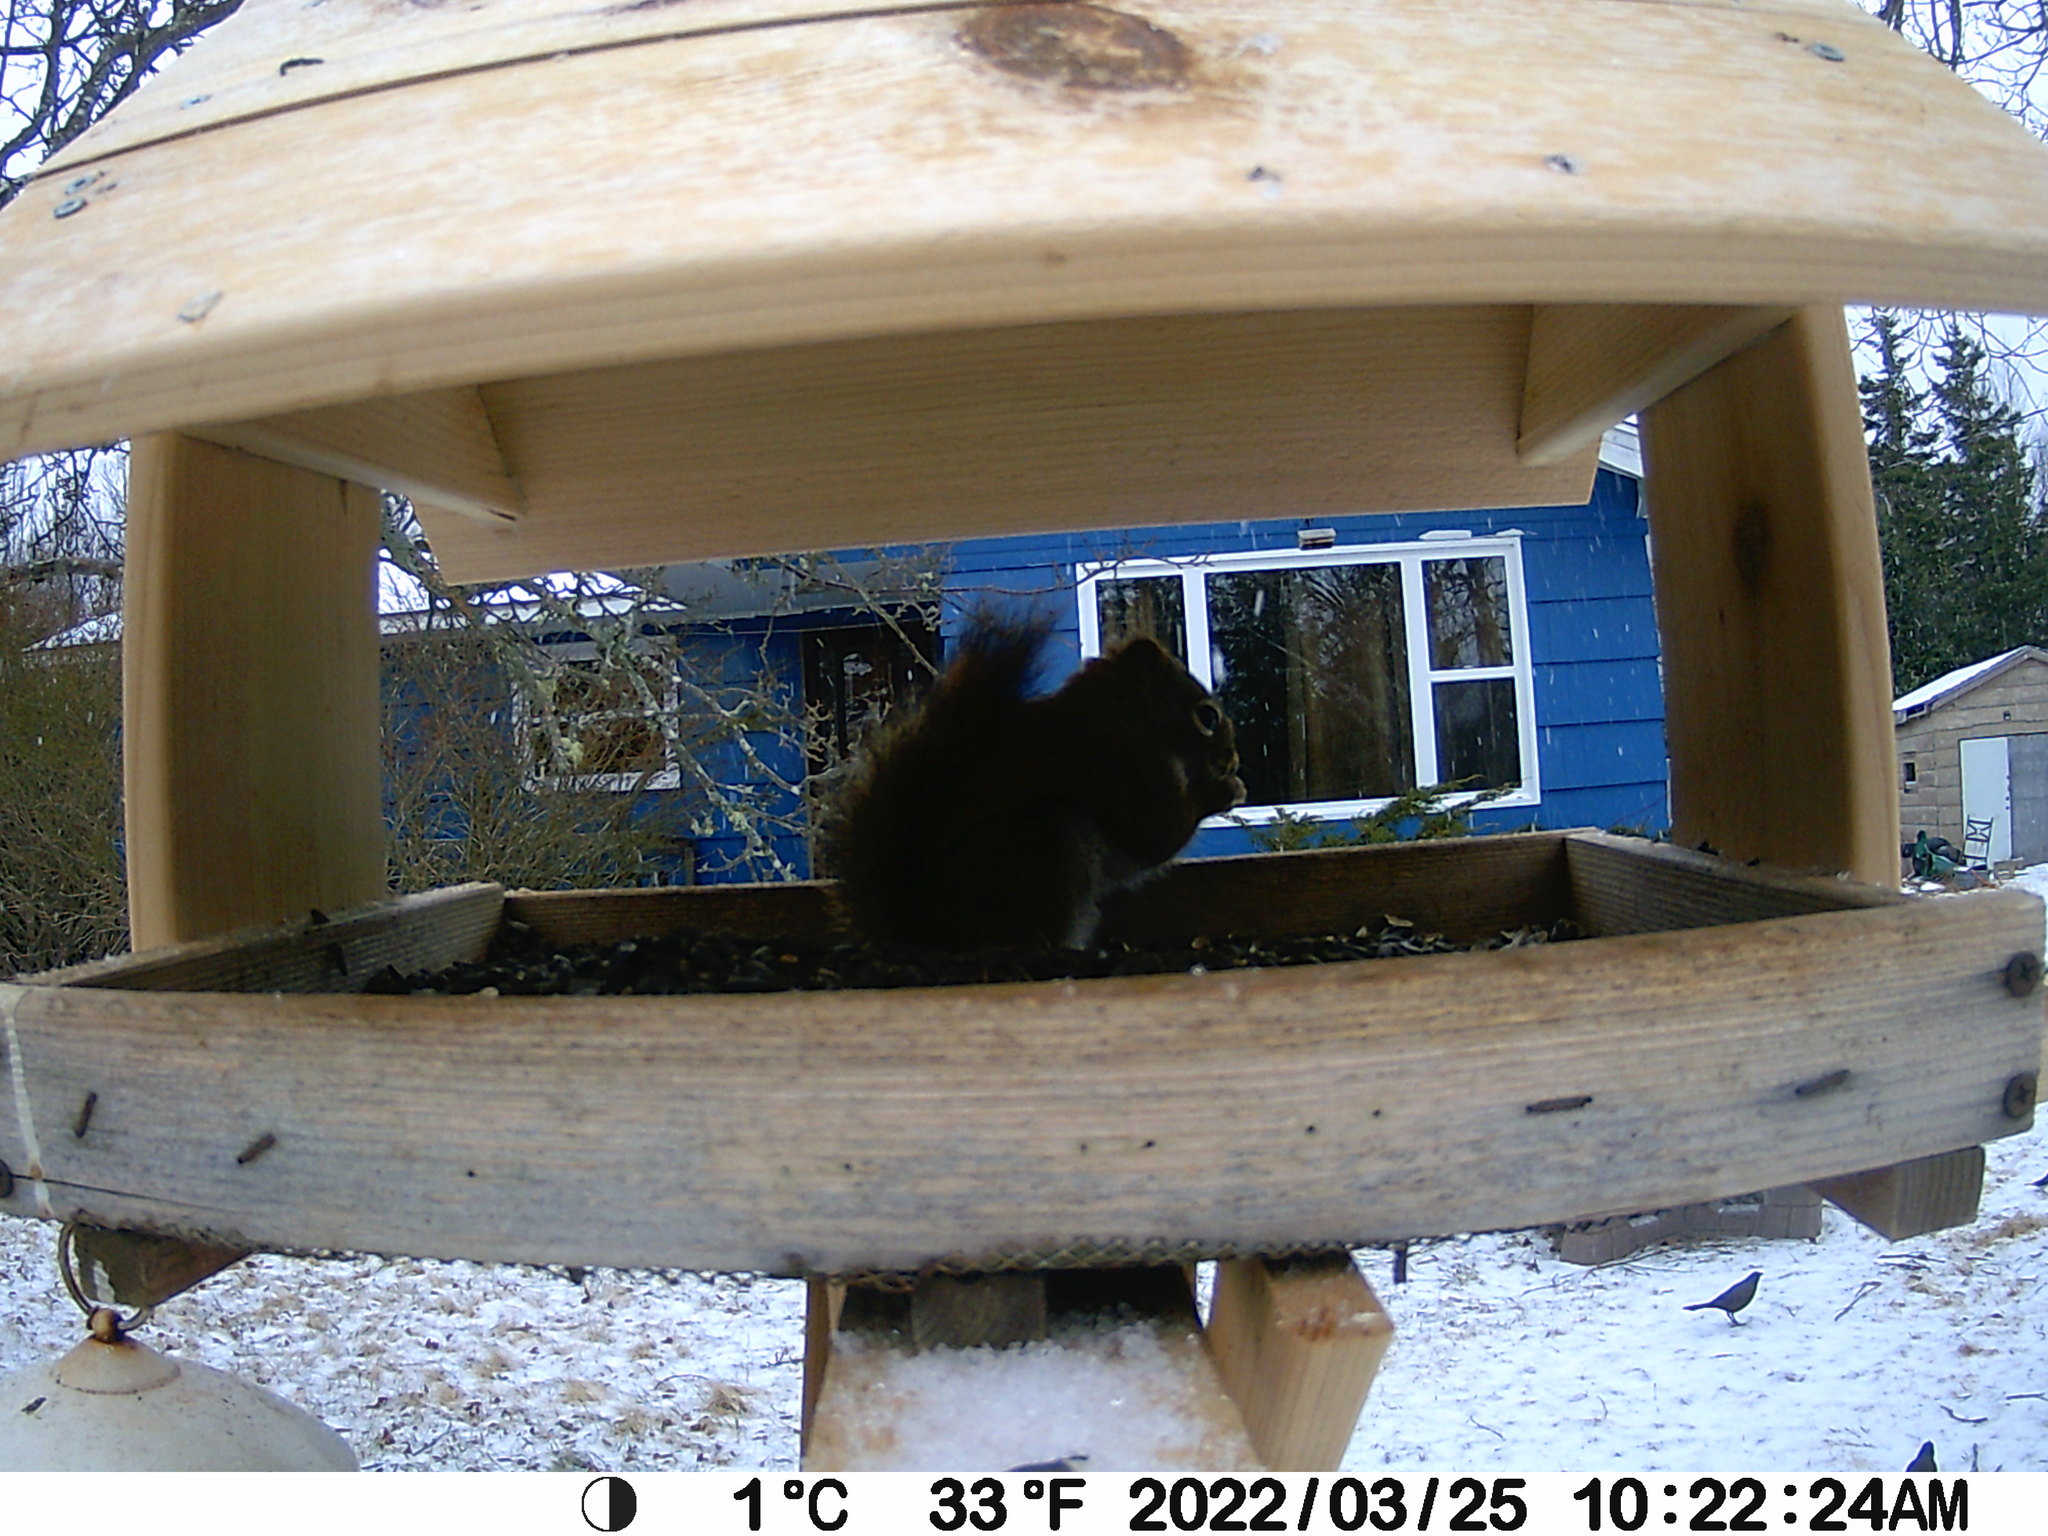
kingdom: Animalia
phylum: Chordata
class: Mammalia
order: Rodentia
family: Sciuridae
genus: Tamiasciurus
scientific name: Tamiasciurus hudsonicus
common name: Red squirrel
